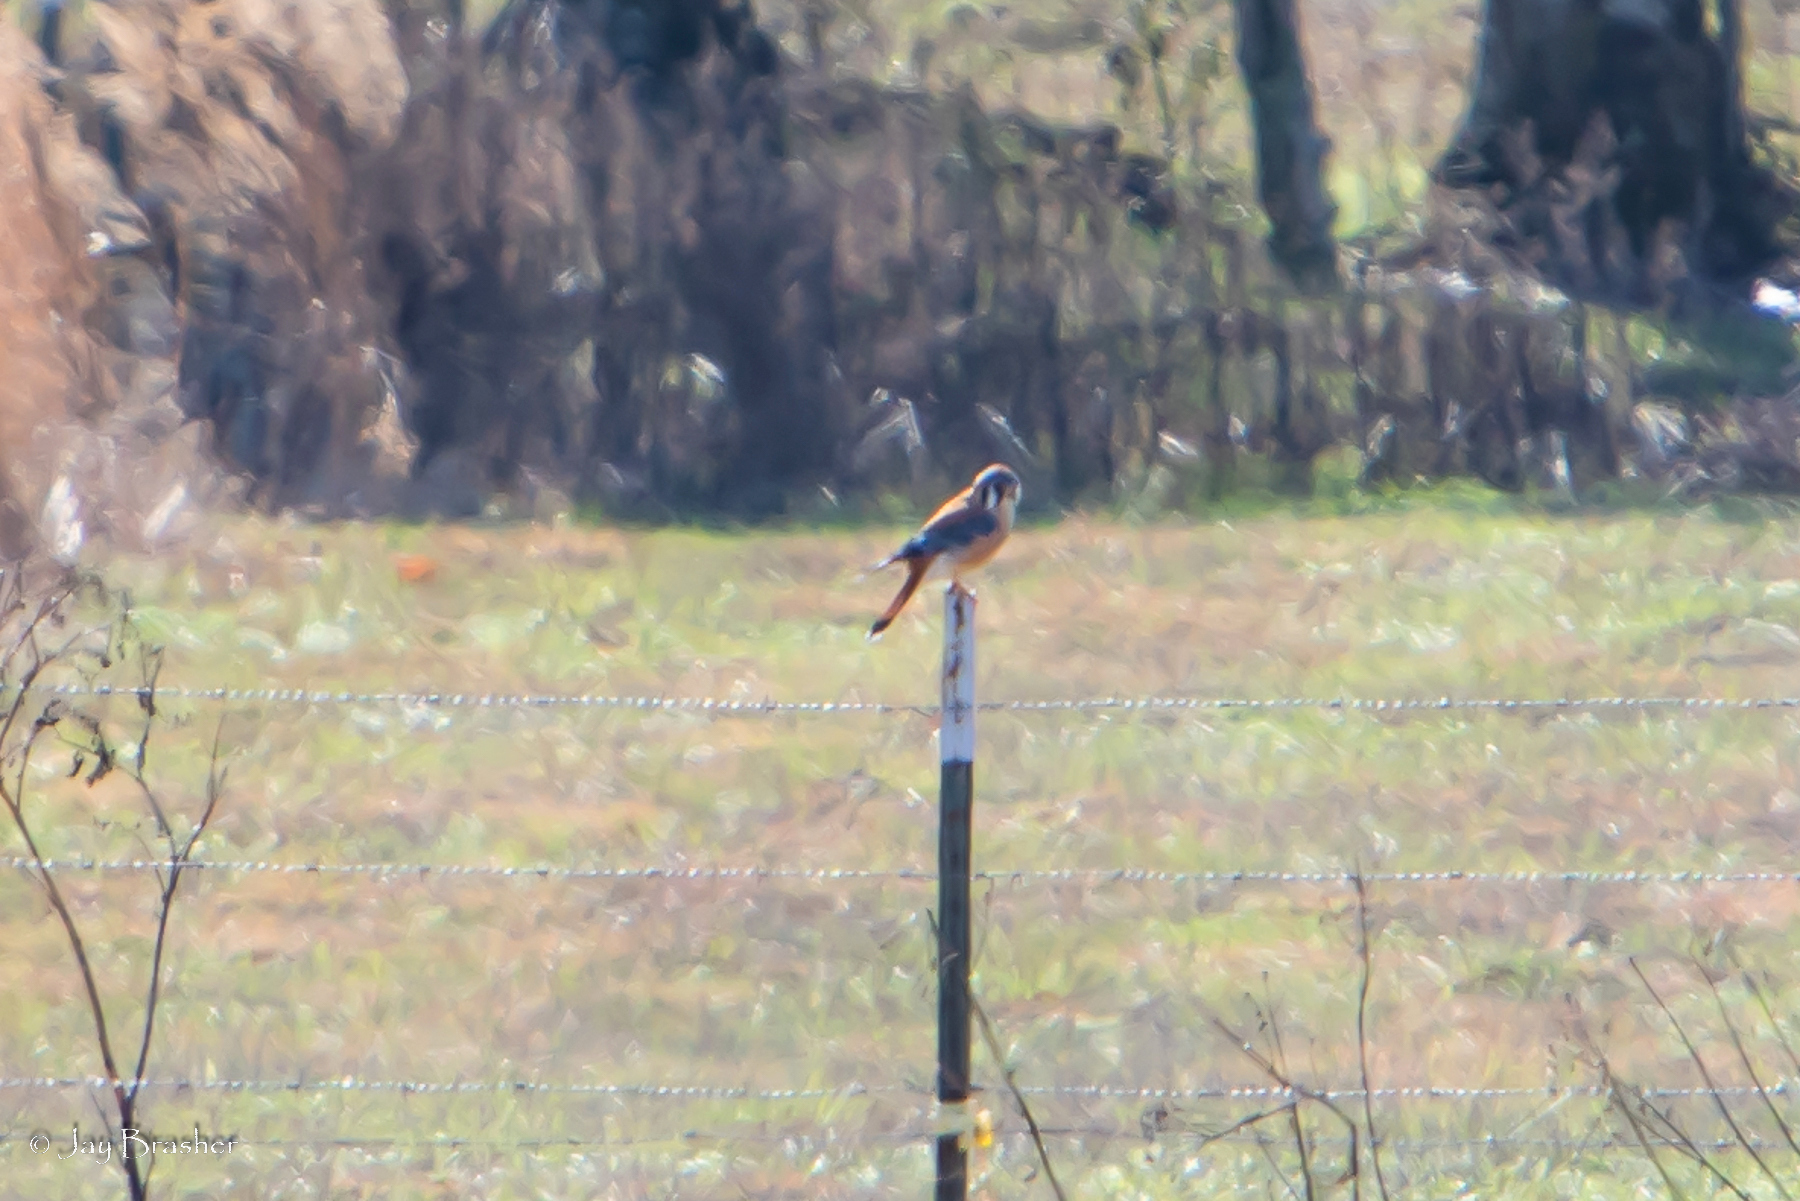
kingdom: Animalia
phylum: Chordata
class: Aves
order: Falconiformes
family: Falconidae
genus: Falco
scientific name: Falco sparverius
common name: American kestrel
